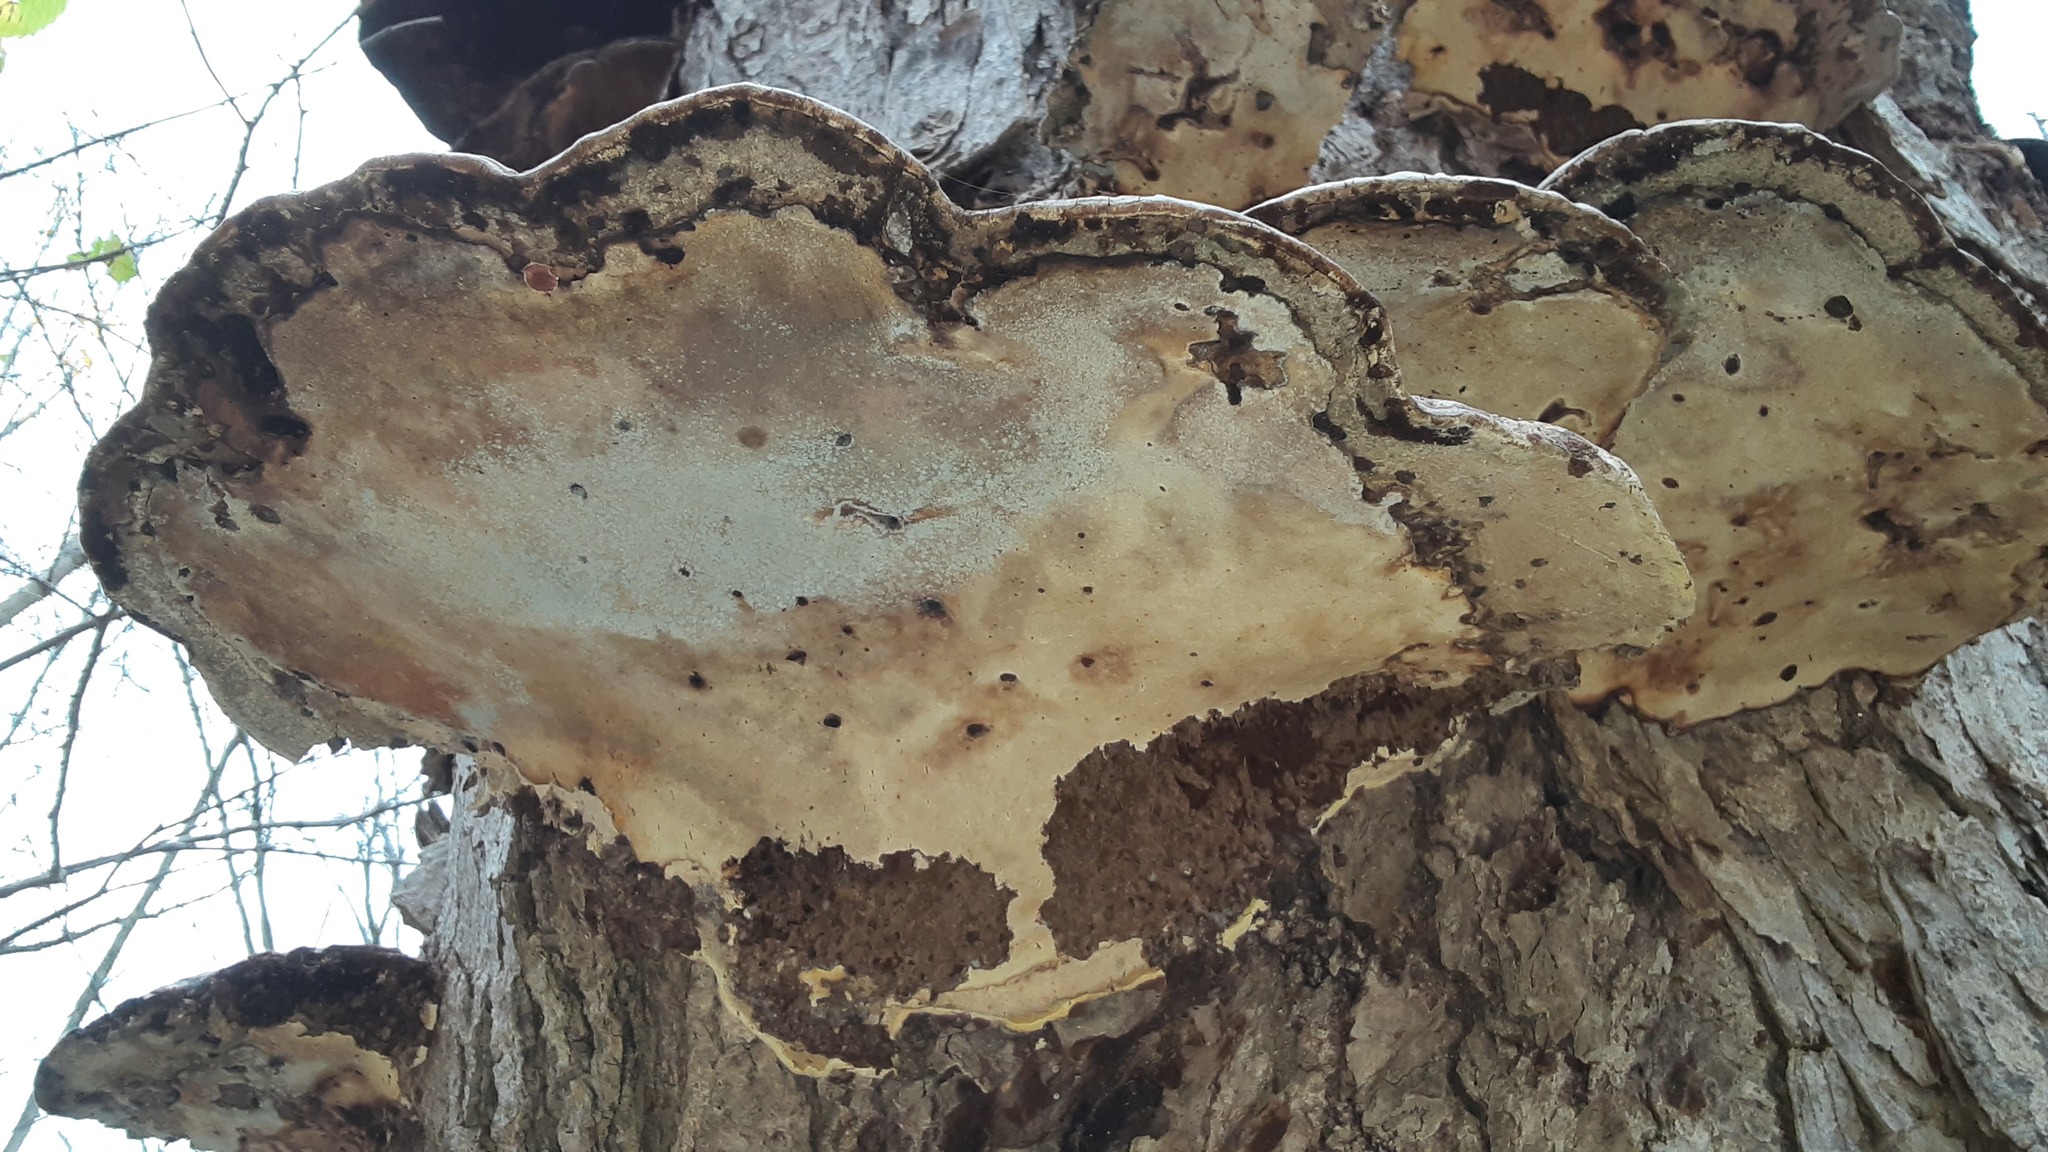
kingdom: Fungi
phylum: Basidiomycota
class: Agaricomycetes
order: Polyporales
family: Polyporaceae
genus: Ganoderma
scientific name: Ganoderma applanatum
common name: Artist's bracket
